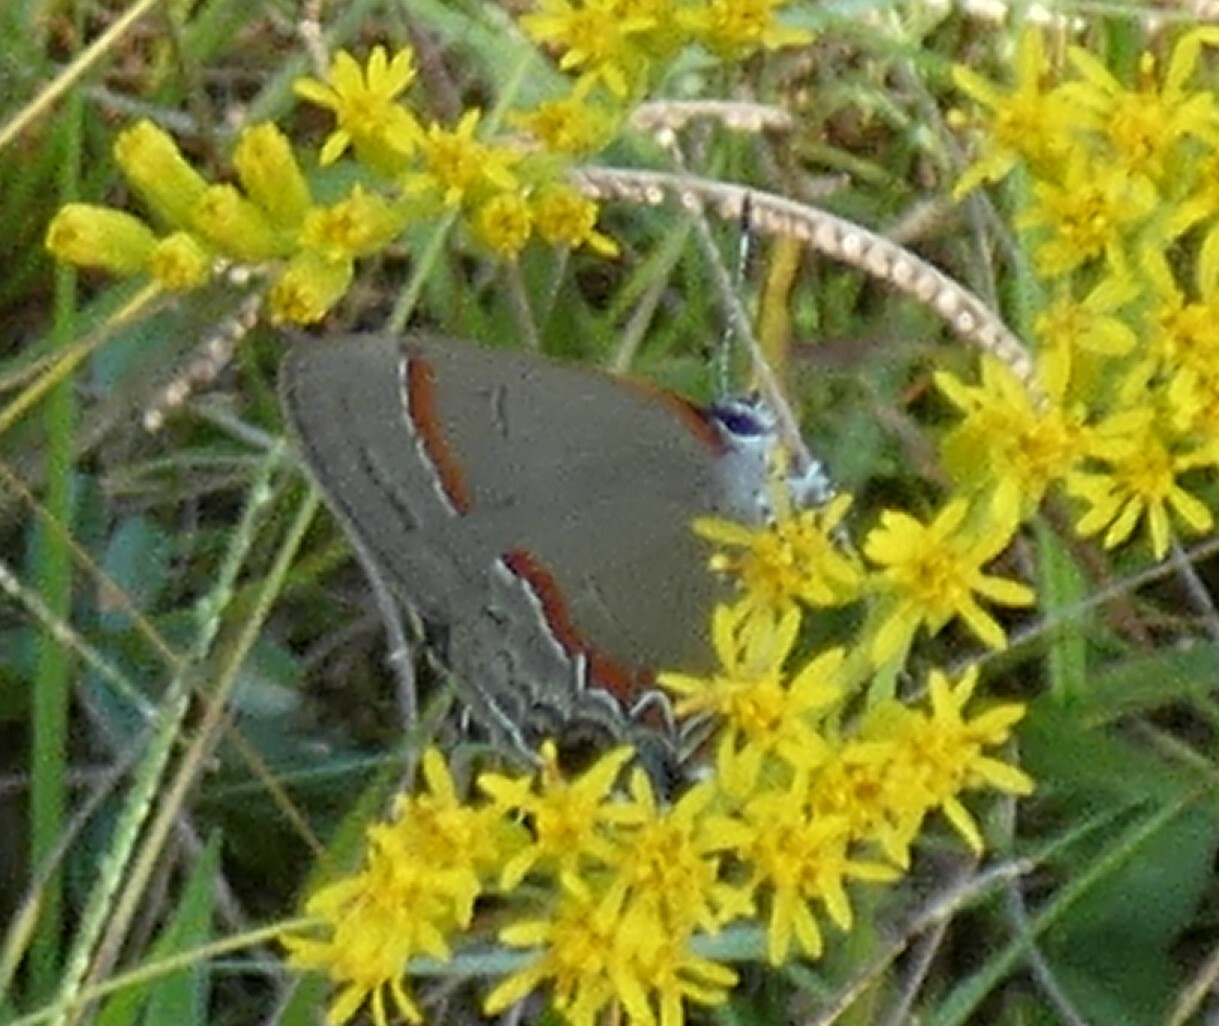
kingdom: Animalia
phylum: Arthropoda
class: Insecta
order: Lepidoptera
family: Lycaenidae
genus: Calycopis
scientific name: Calycopis cecrops
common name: Red-banded hairstreak
